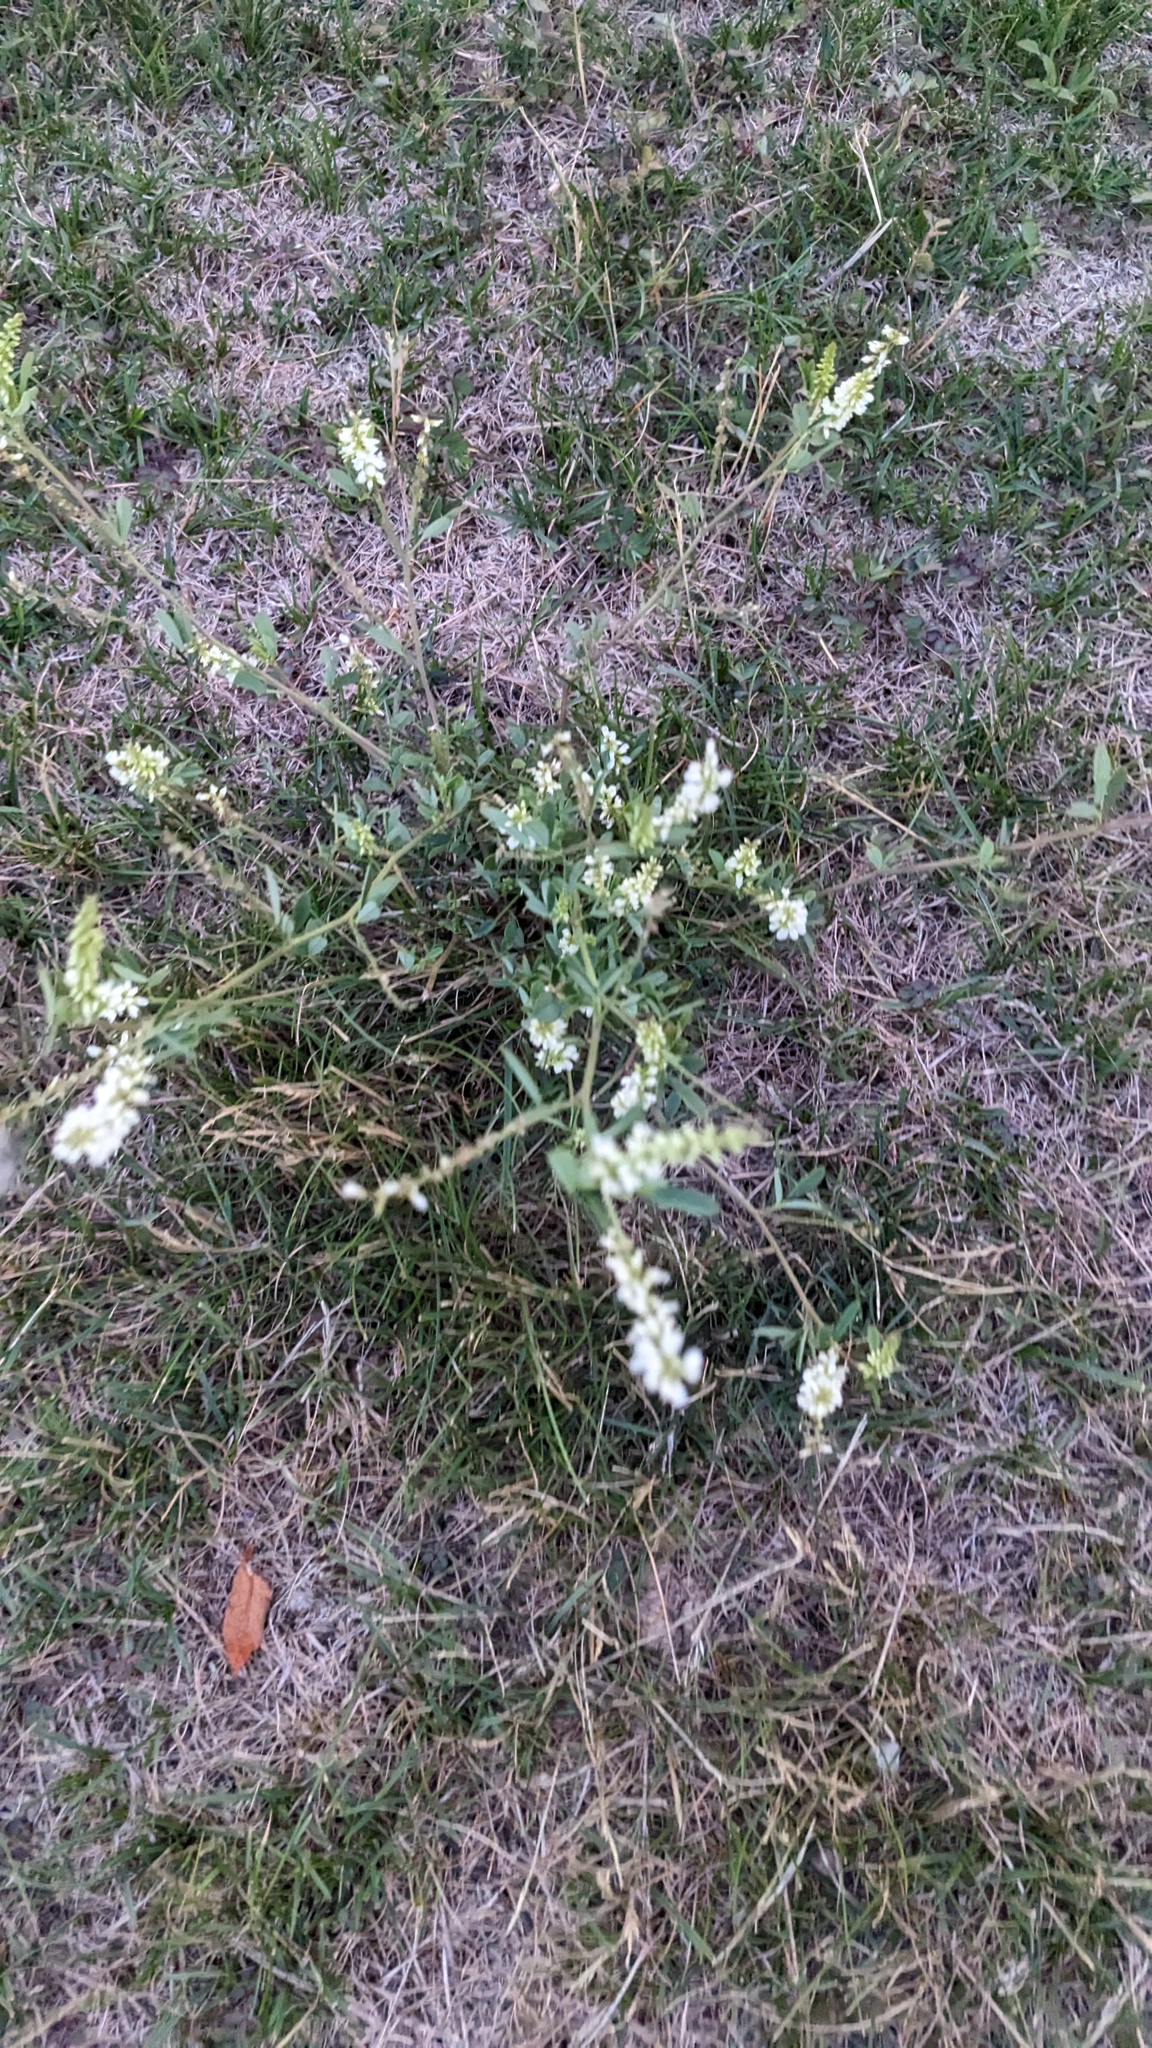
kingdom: Plantae
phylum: Tracheophyta
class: Magnoliopsida
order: Fabales
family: Fabaceae
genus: Melilotus
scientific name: Melilotus albus
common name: White melilot
